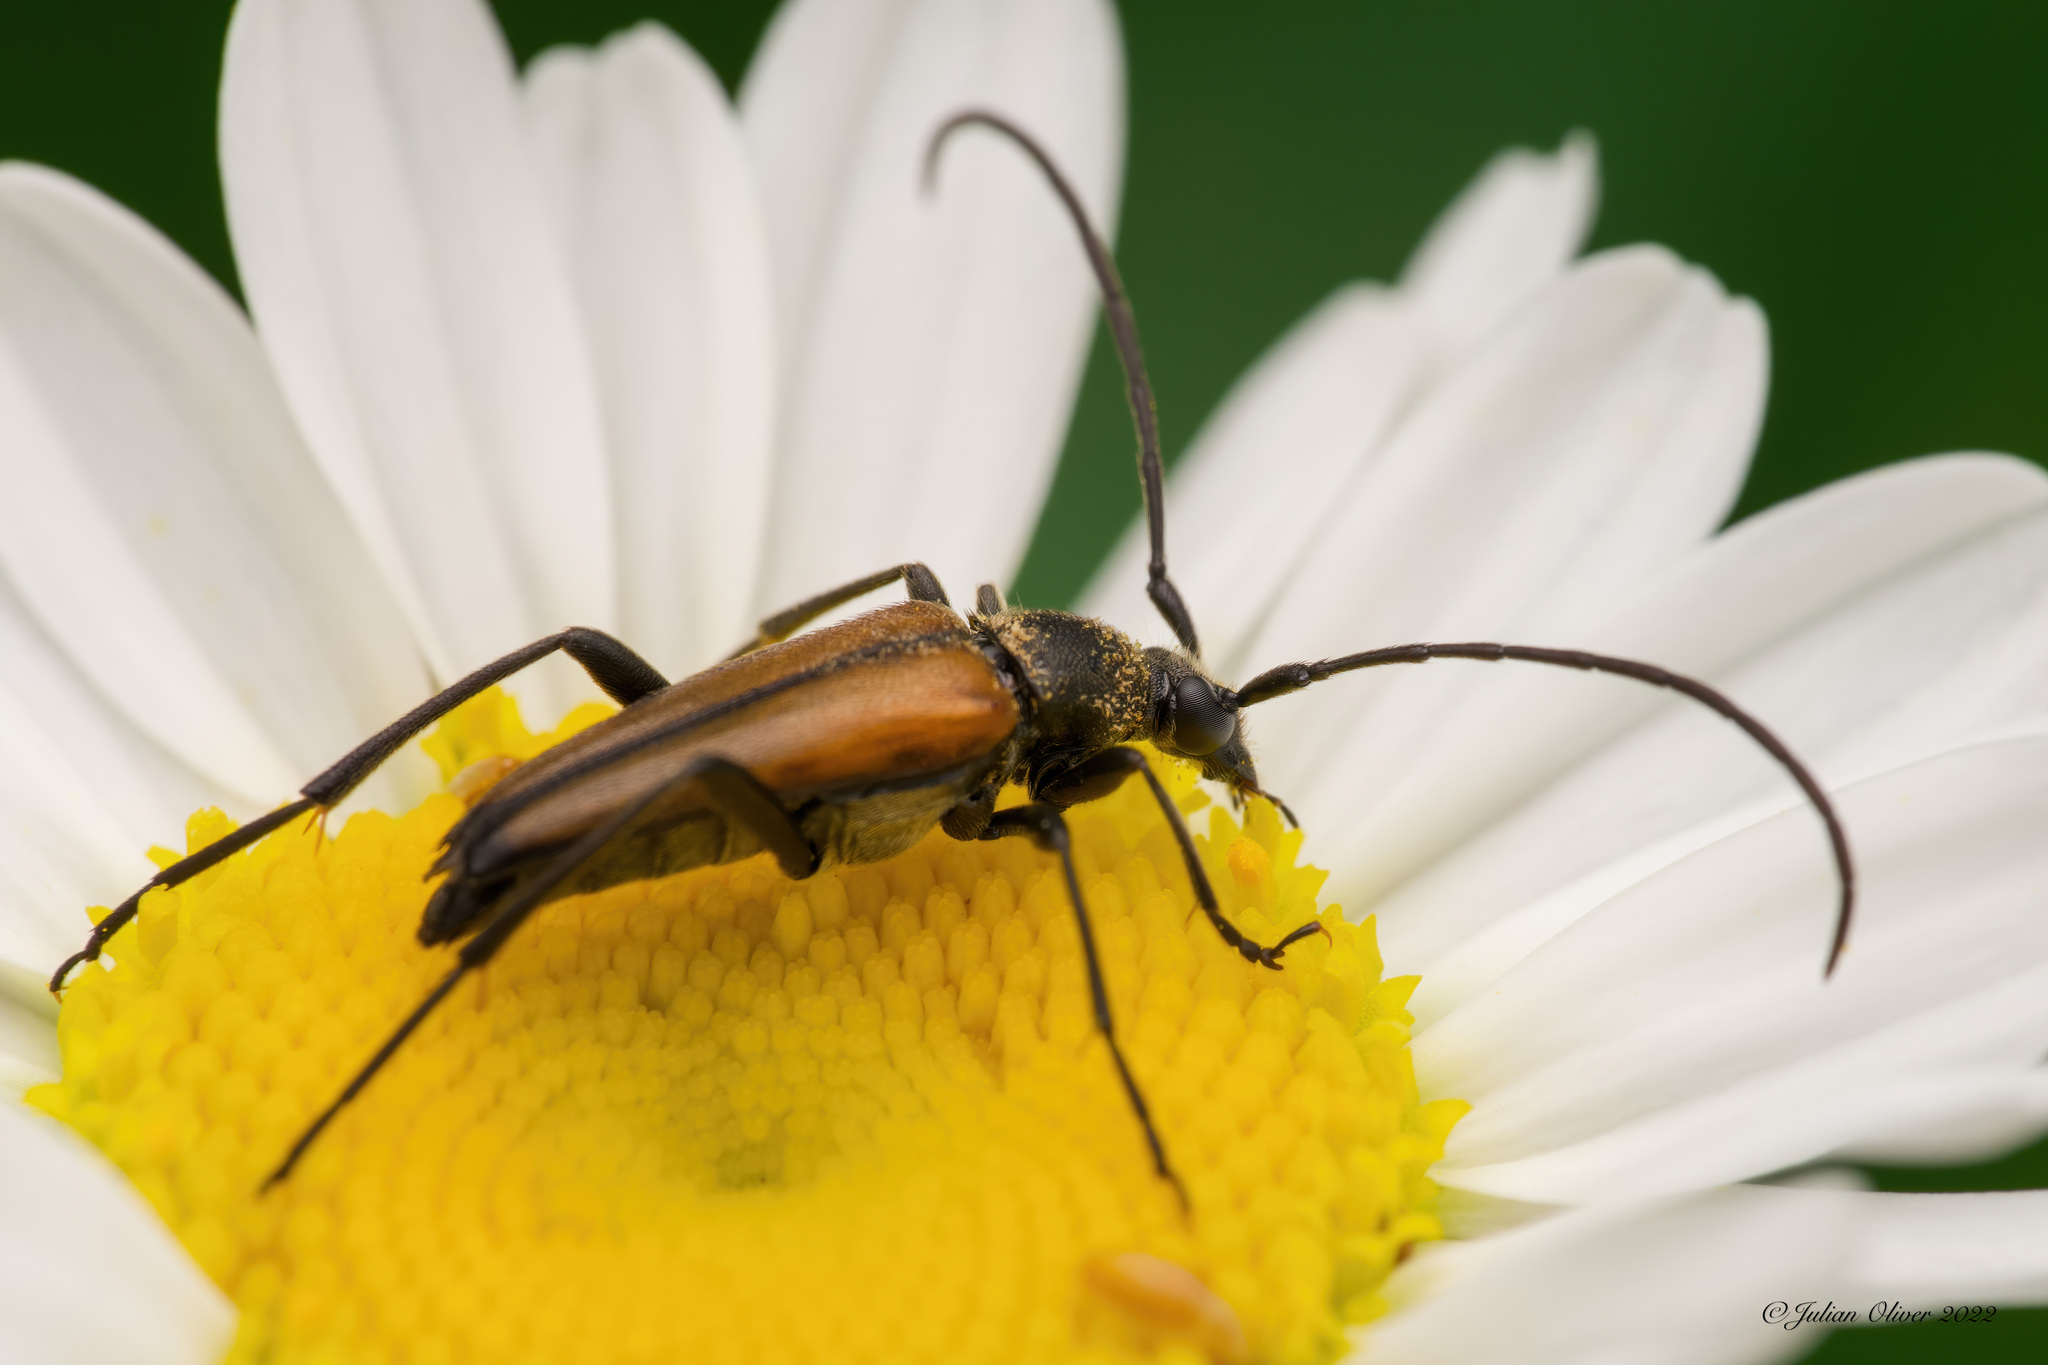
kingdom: Animalia
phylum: Arthropoda
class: Insecta
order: Coleoptera
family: Cerambycidae
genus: Stenurella
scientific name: Stenurella melanura
